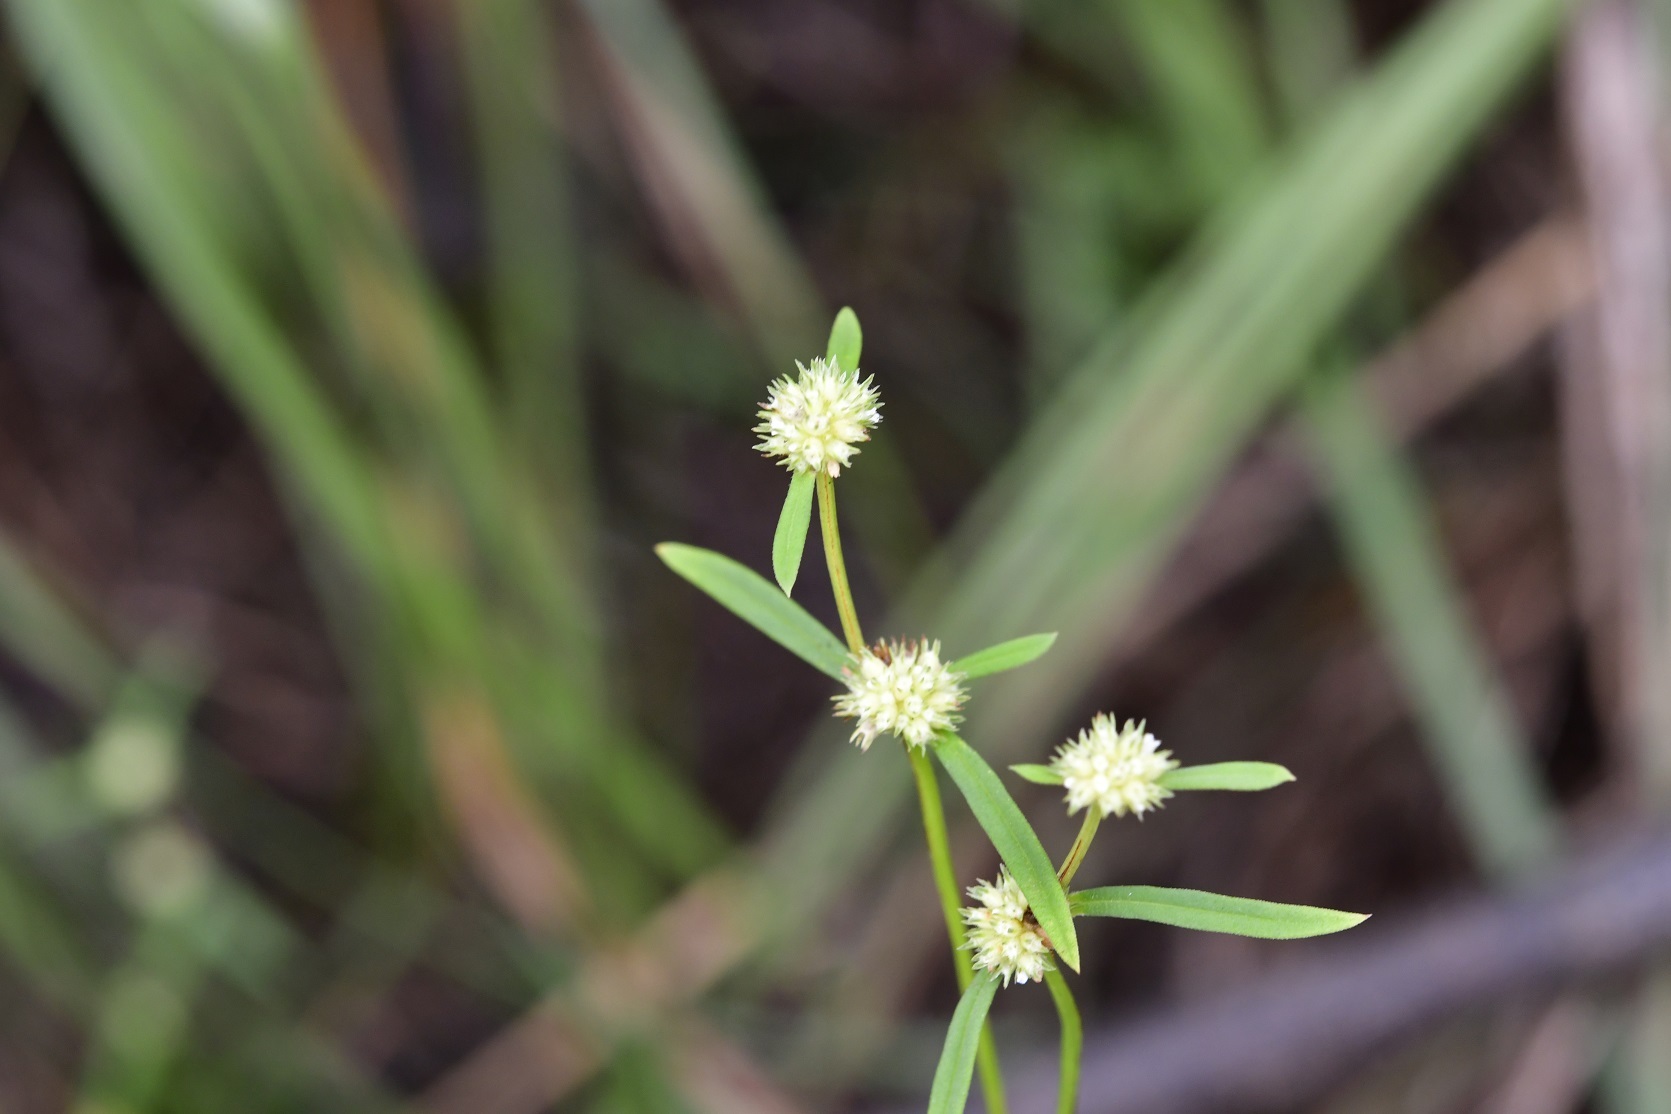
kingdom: Plantae
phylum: Tracheophyta
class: Magnoliopsida
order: Gentianales
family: Rubiaceae
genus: Crusea
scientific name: Crusea simplex
